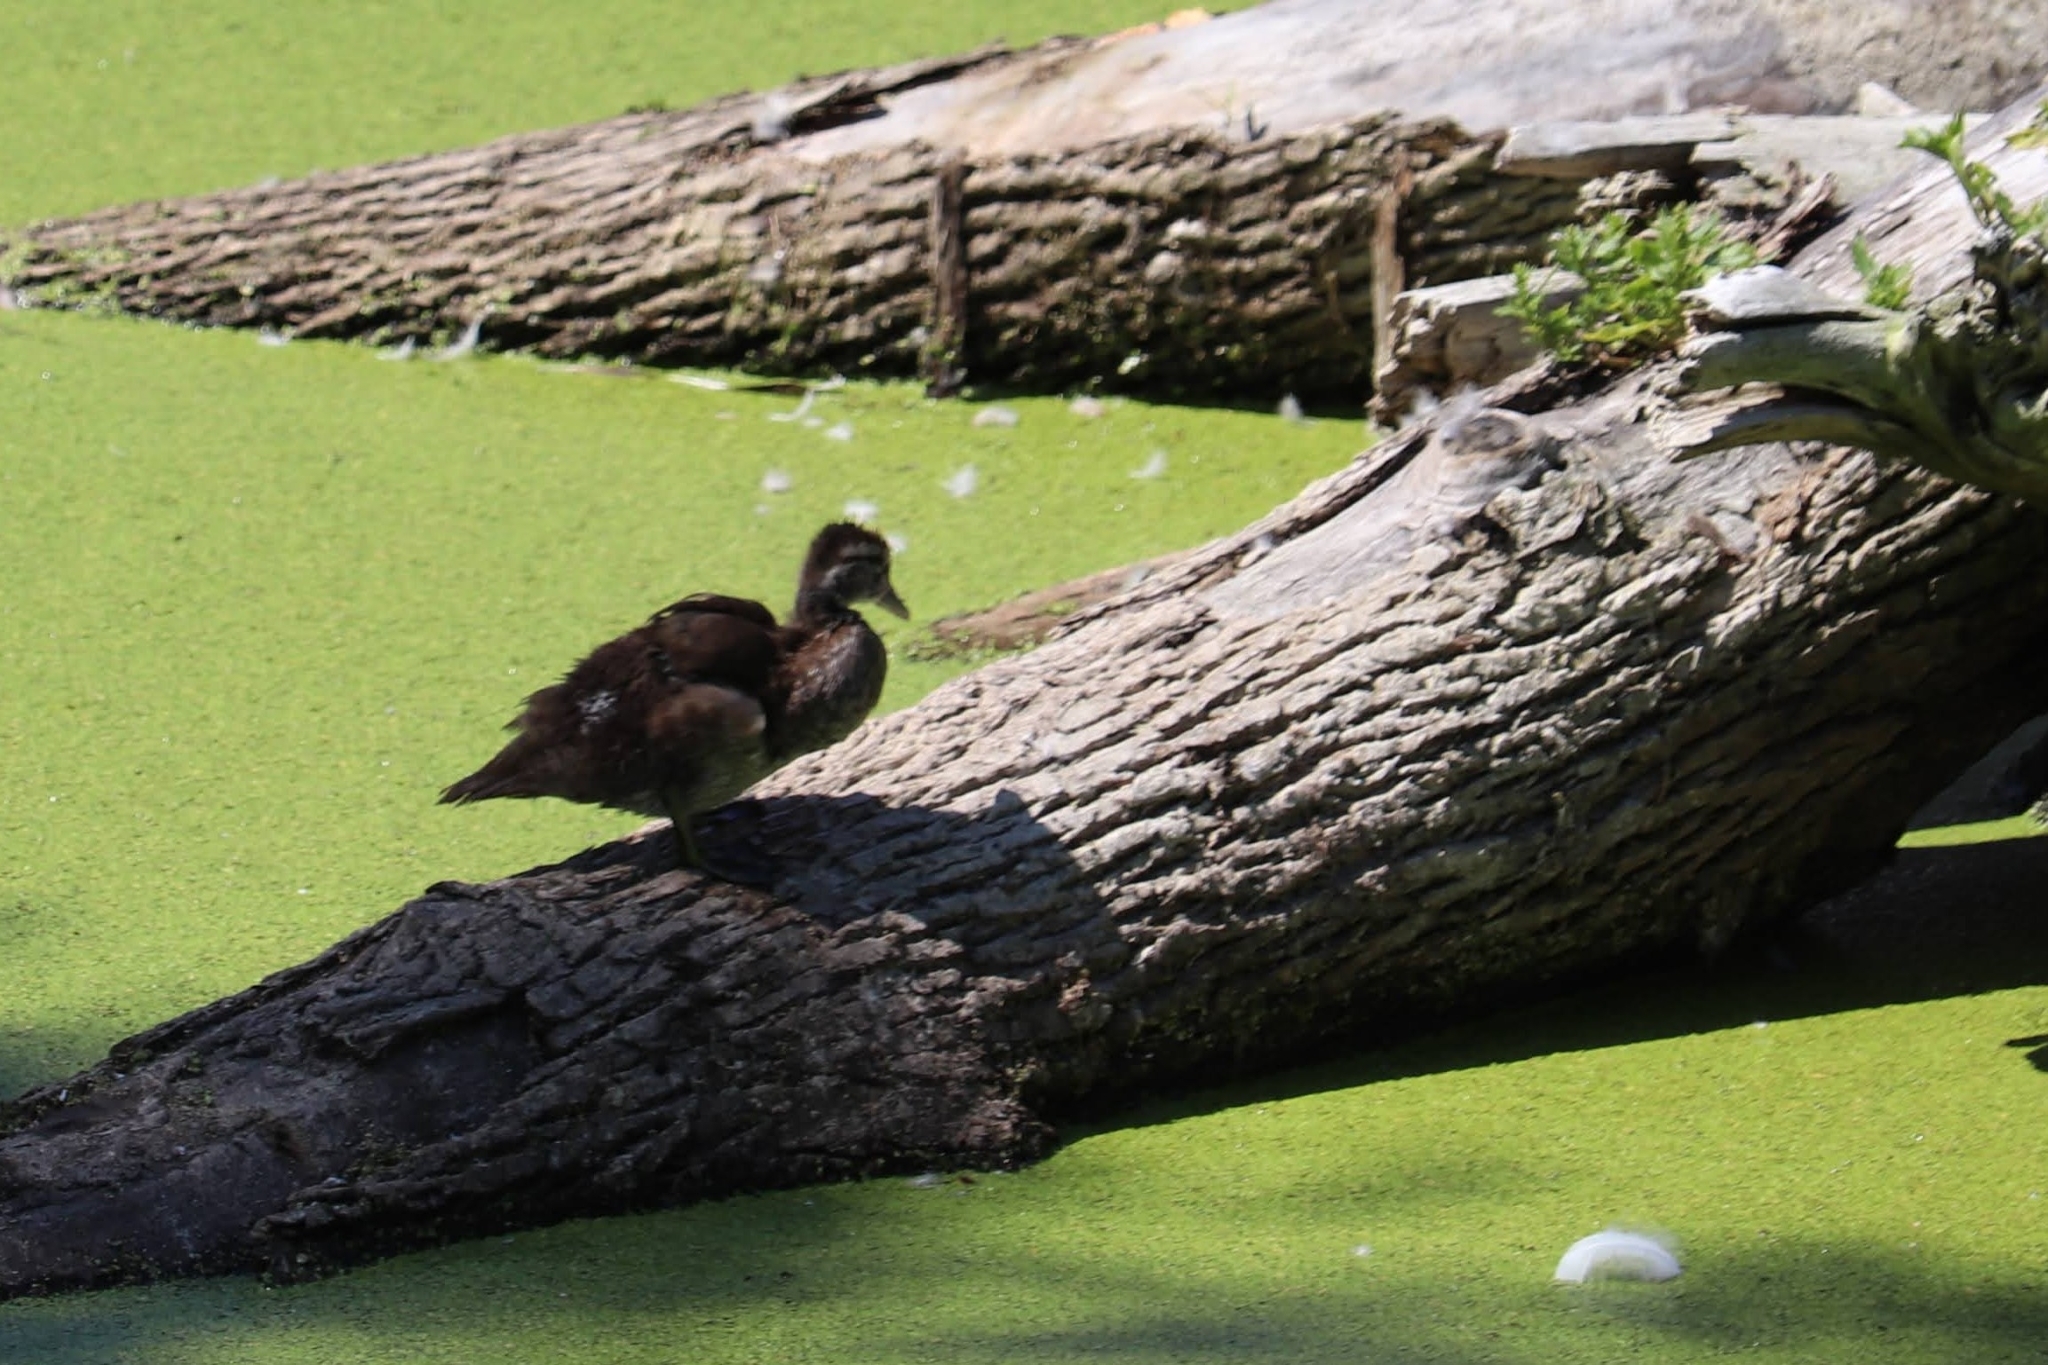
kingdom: Animalia
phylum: Chordata
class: Aves
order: Anseriformes
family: Anatidae
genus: Aix
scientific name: Aix sponsa
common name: Wood duck
